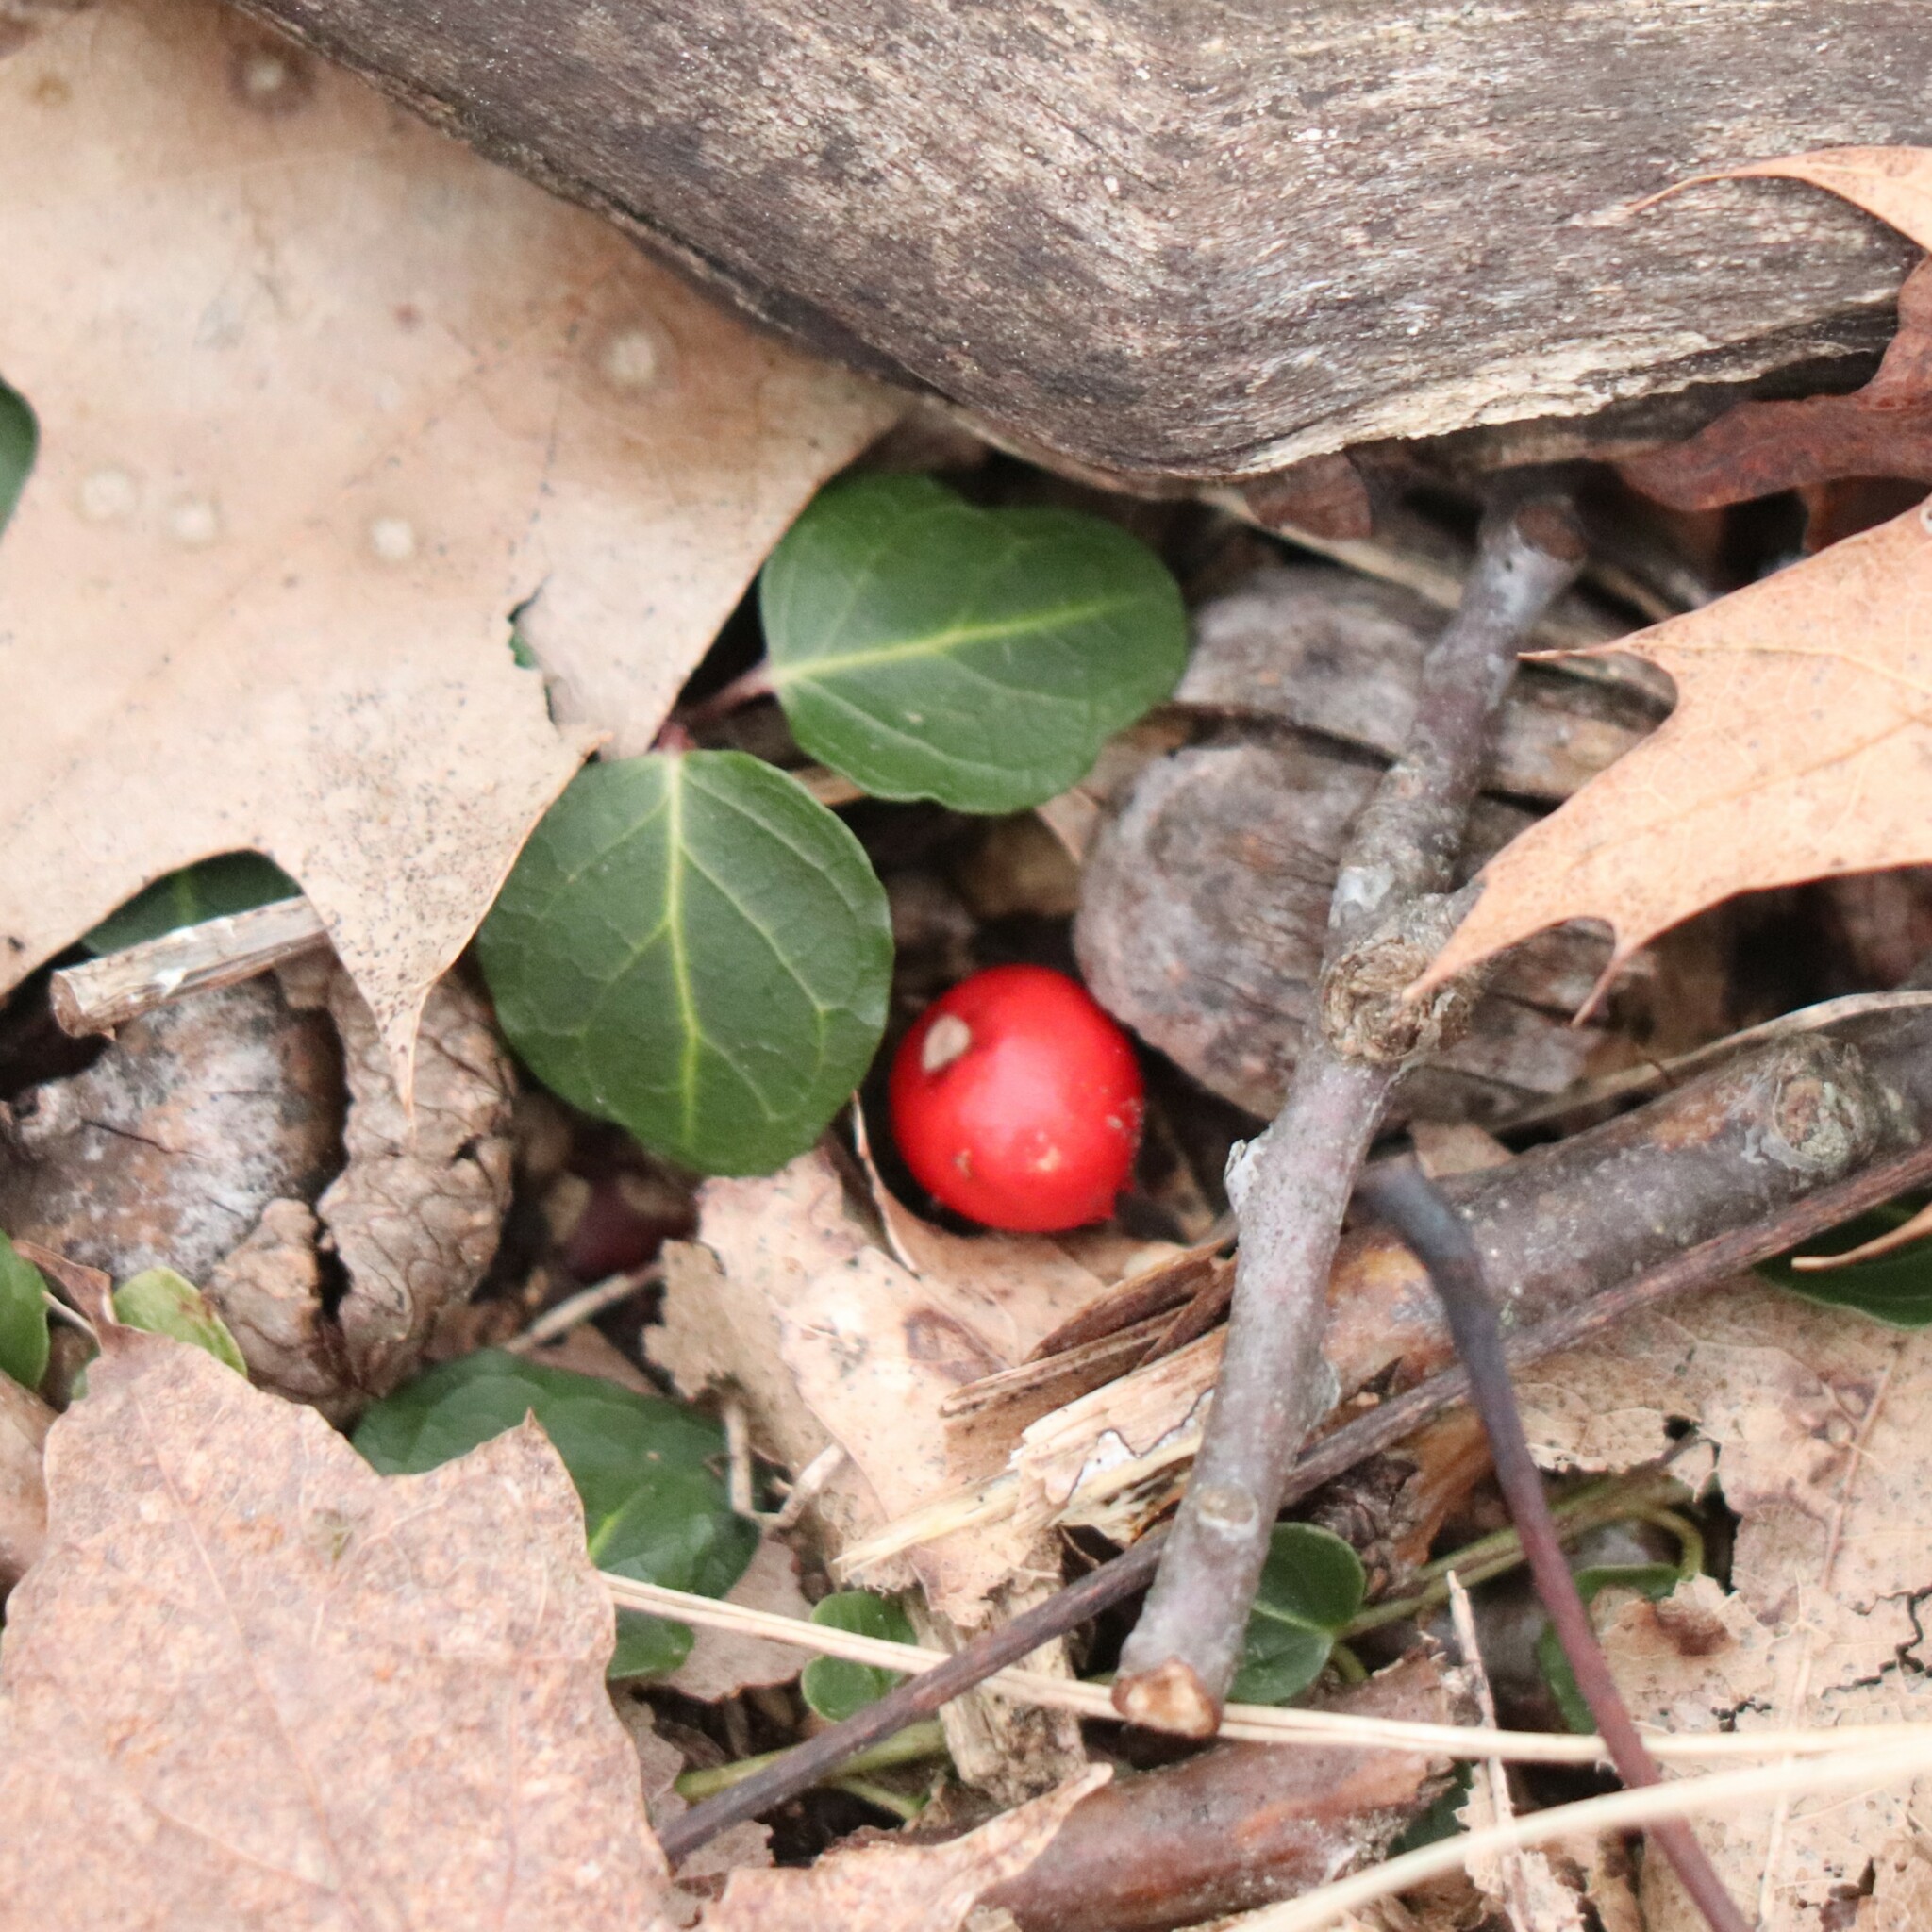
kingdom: Plantae
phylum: Tracheophyta
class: Magnoliopsida
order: Gentianales
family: Rubiaceae
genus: Mitchella
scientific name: Mitchella repens
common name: Partridge-berry
